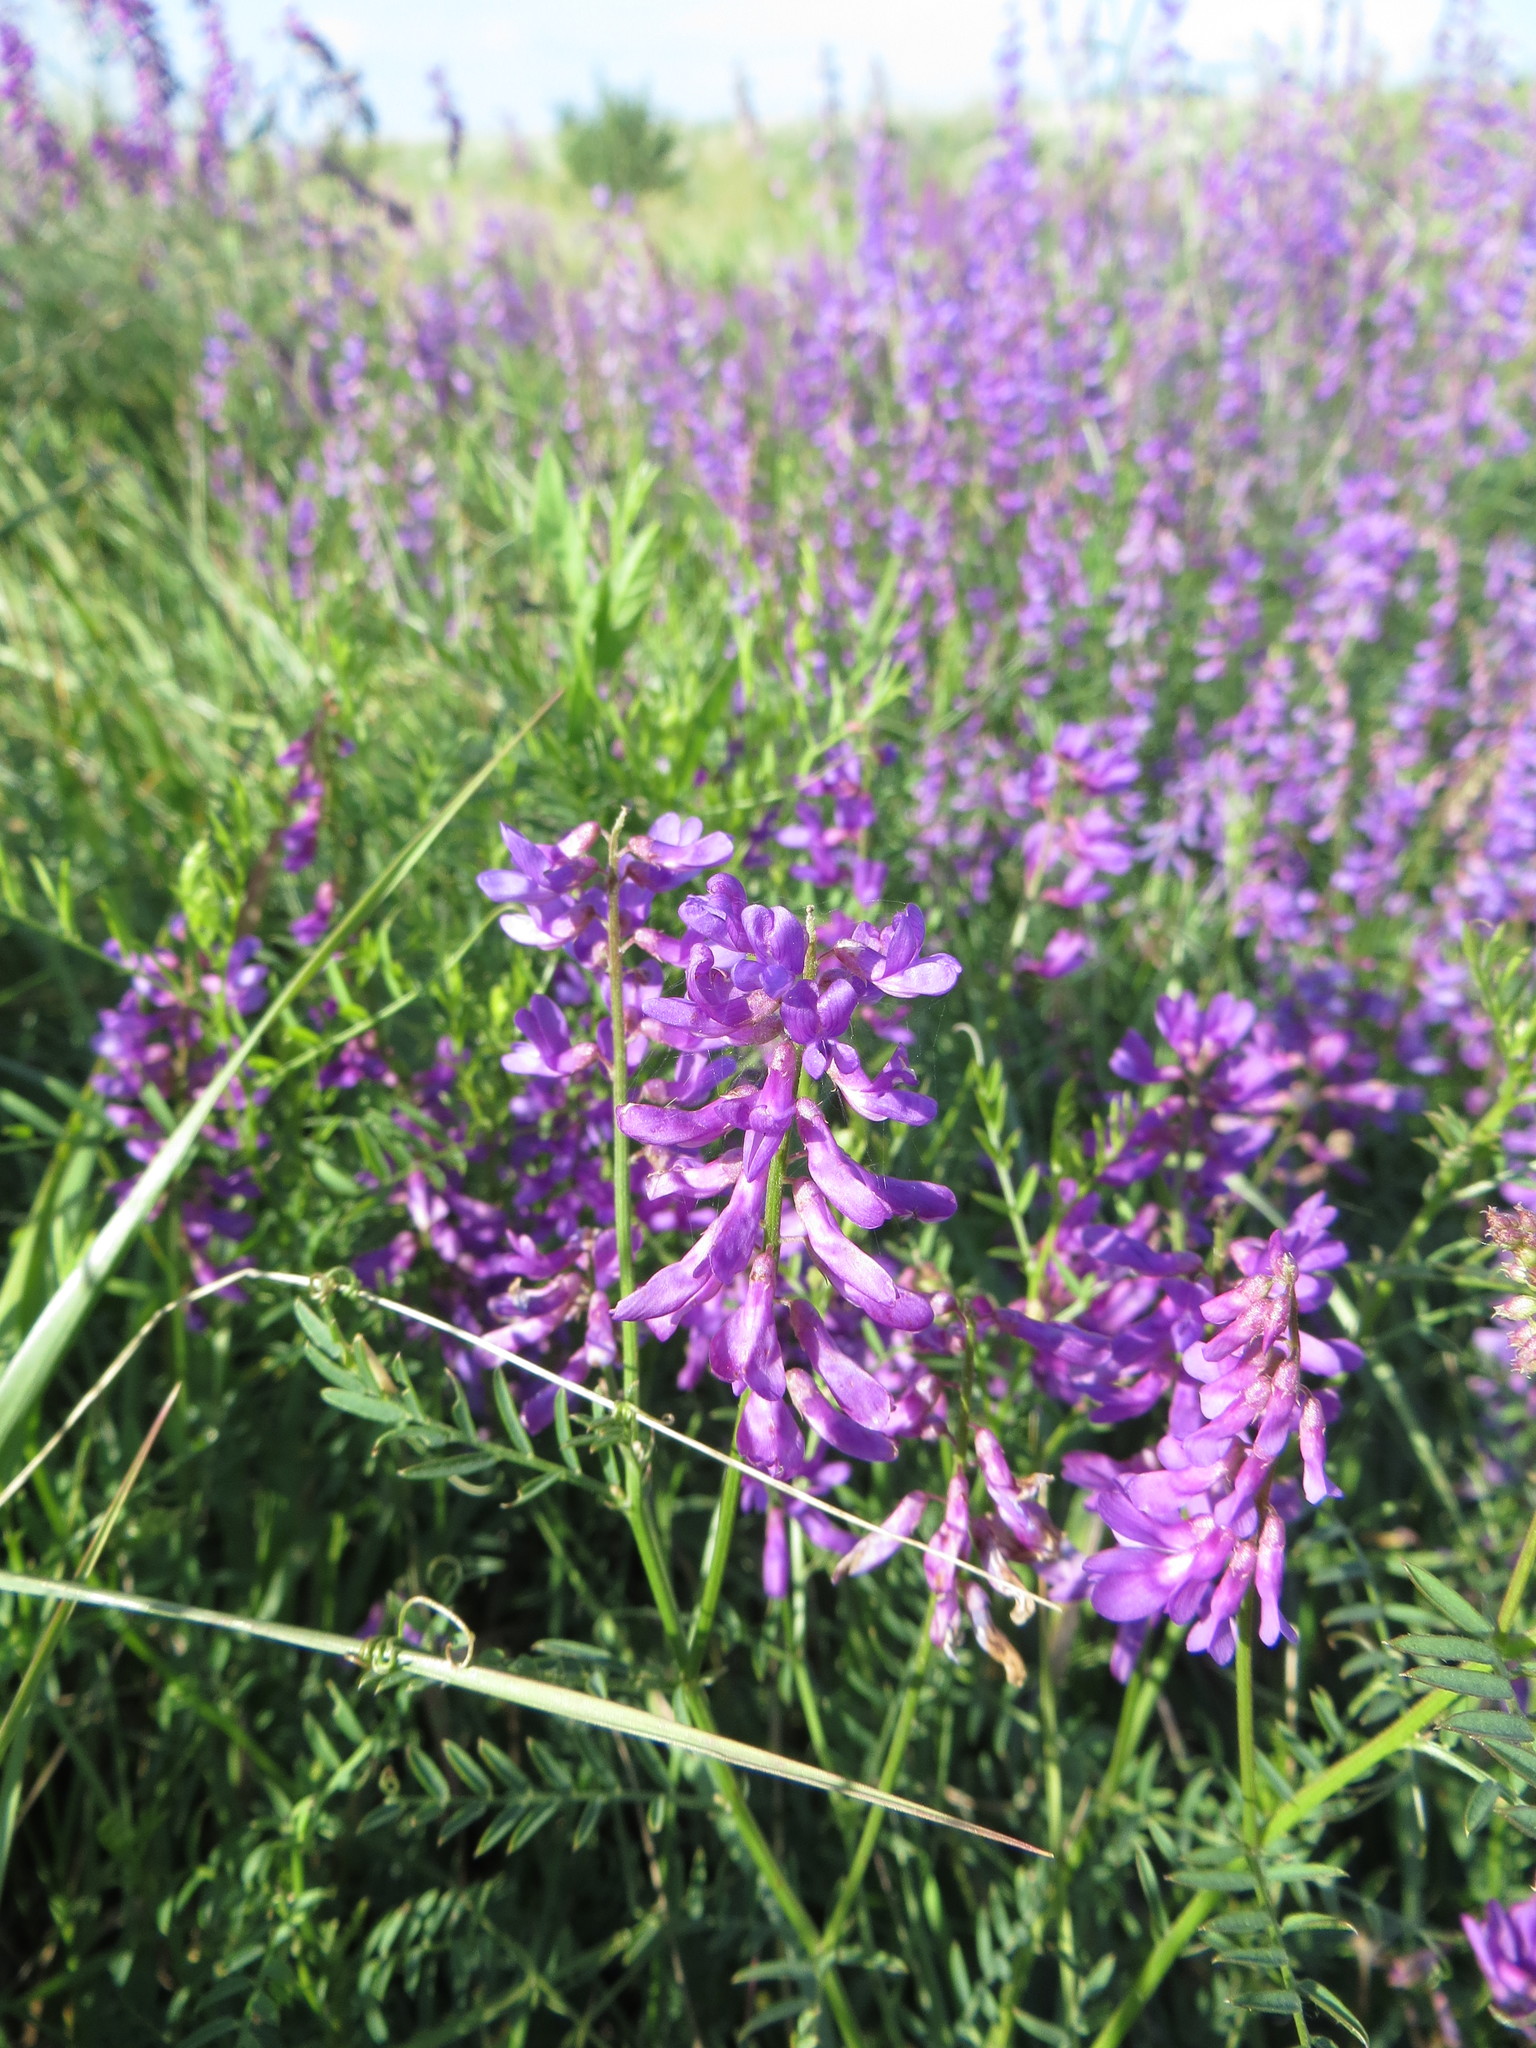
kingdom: Plantae
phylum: Tracheophyta
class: Magnoliopsida
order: Fabales
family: Fabaceae
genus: Vicia
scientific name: Vicia tenuifolia
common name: Fine-leaved vetch
